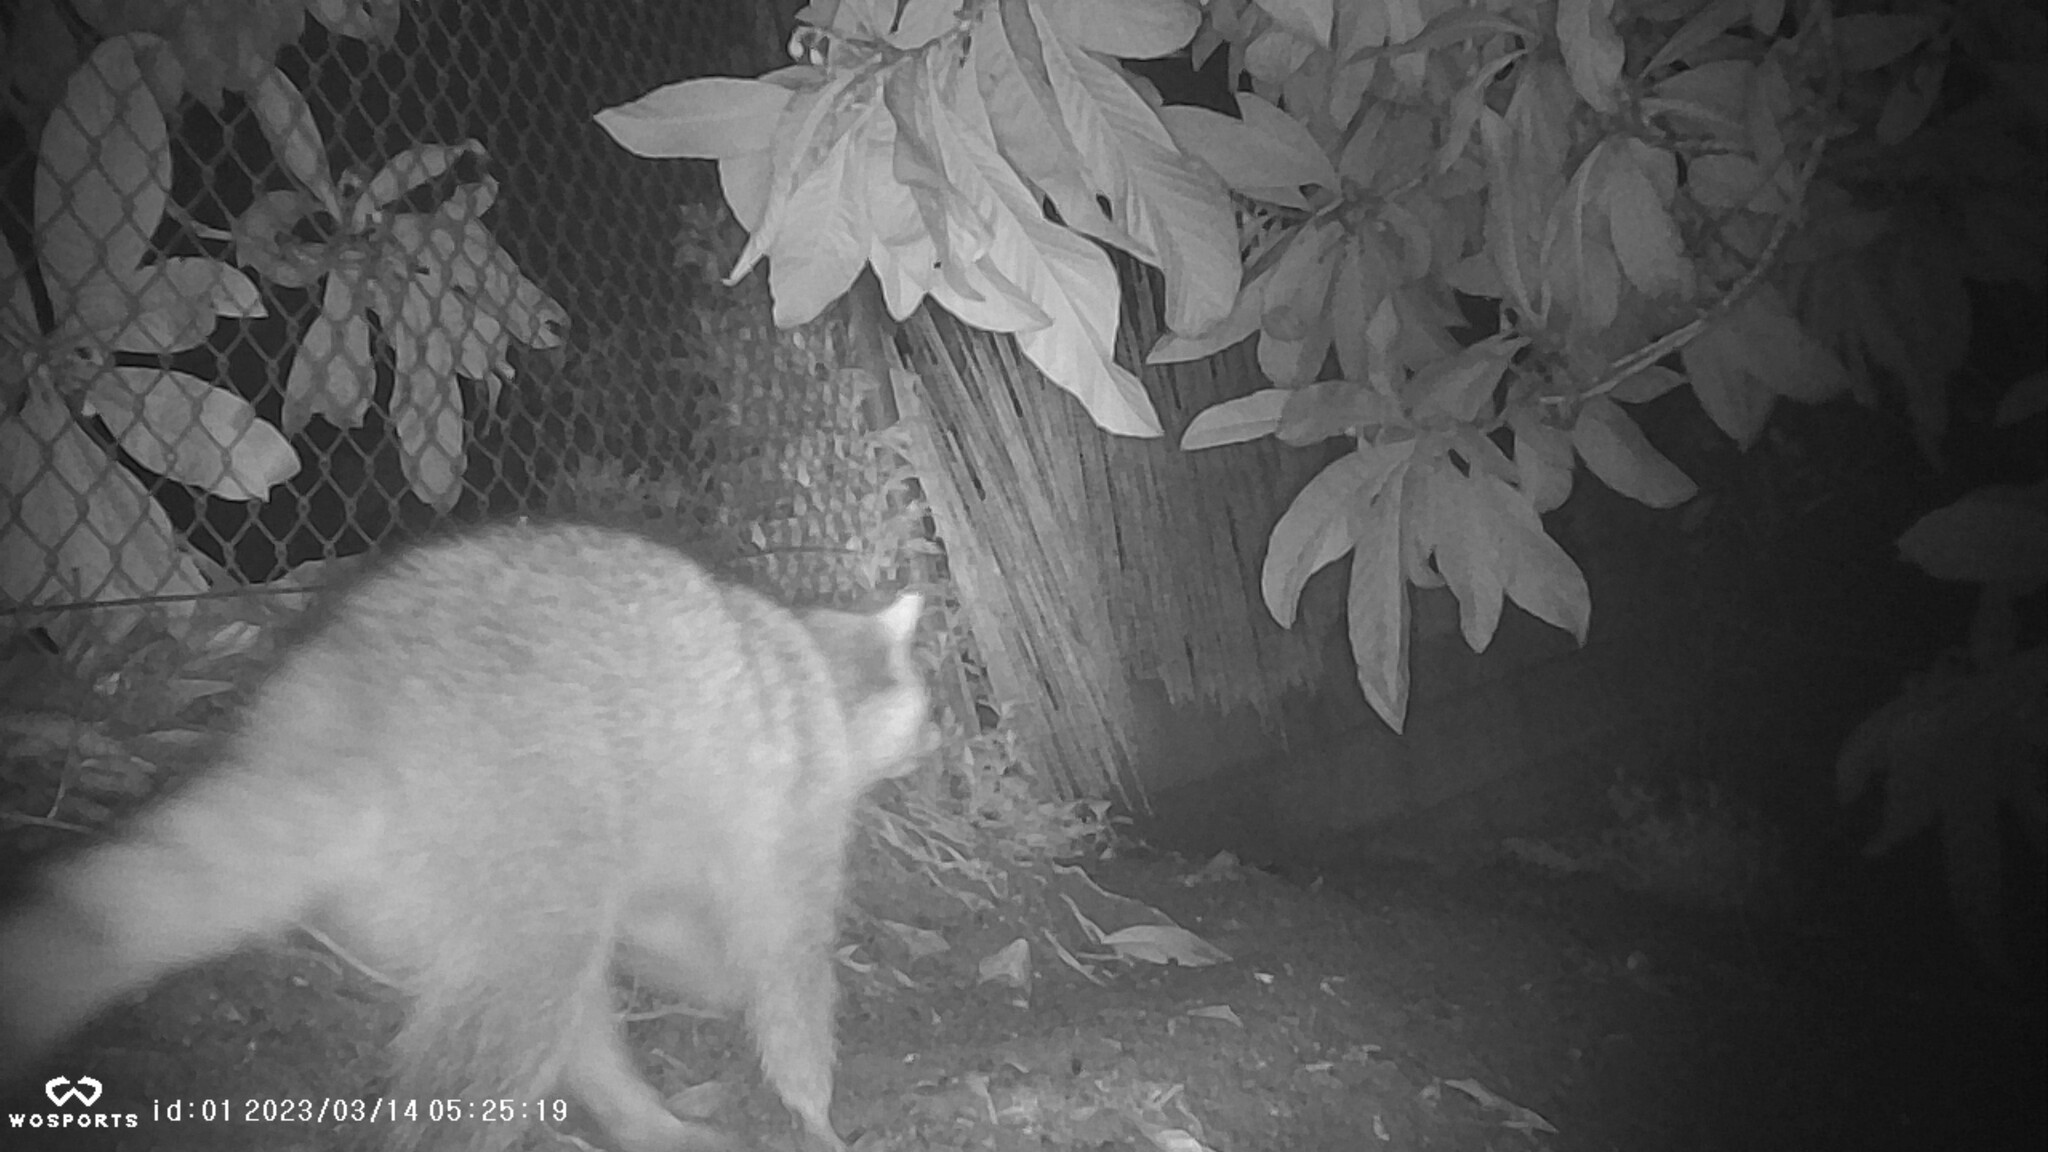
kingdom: Animalia
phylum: Chordata
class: Mammalia
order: Carnivora
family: Procyonidae
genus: Procyon
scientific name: Procyon lotor
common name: Raccoon
